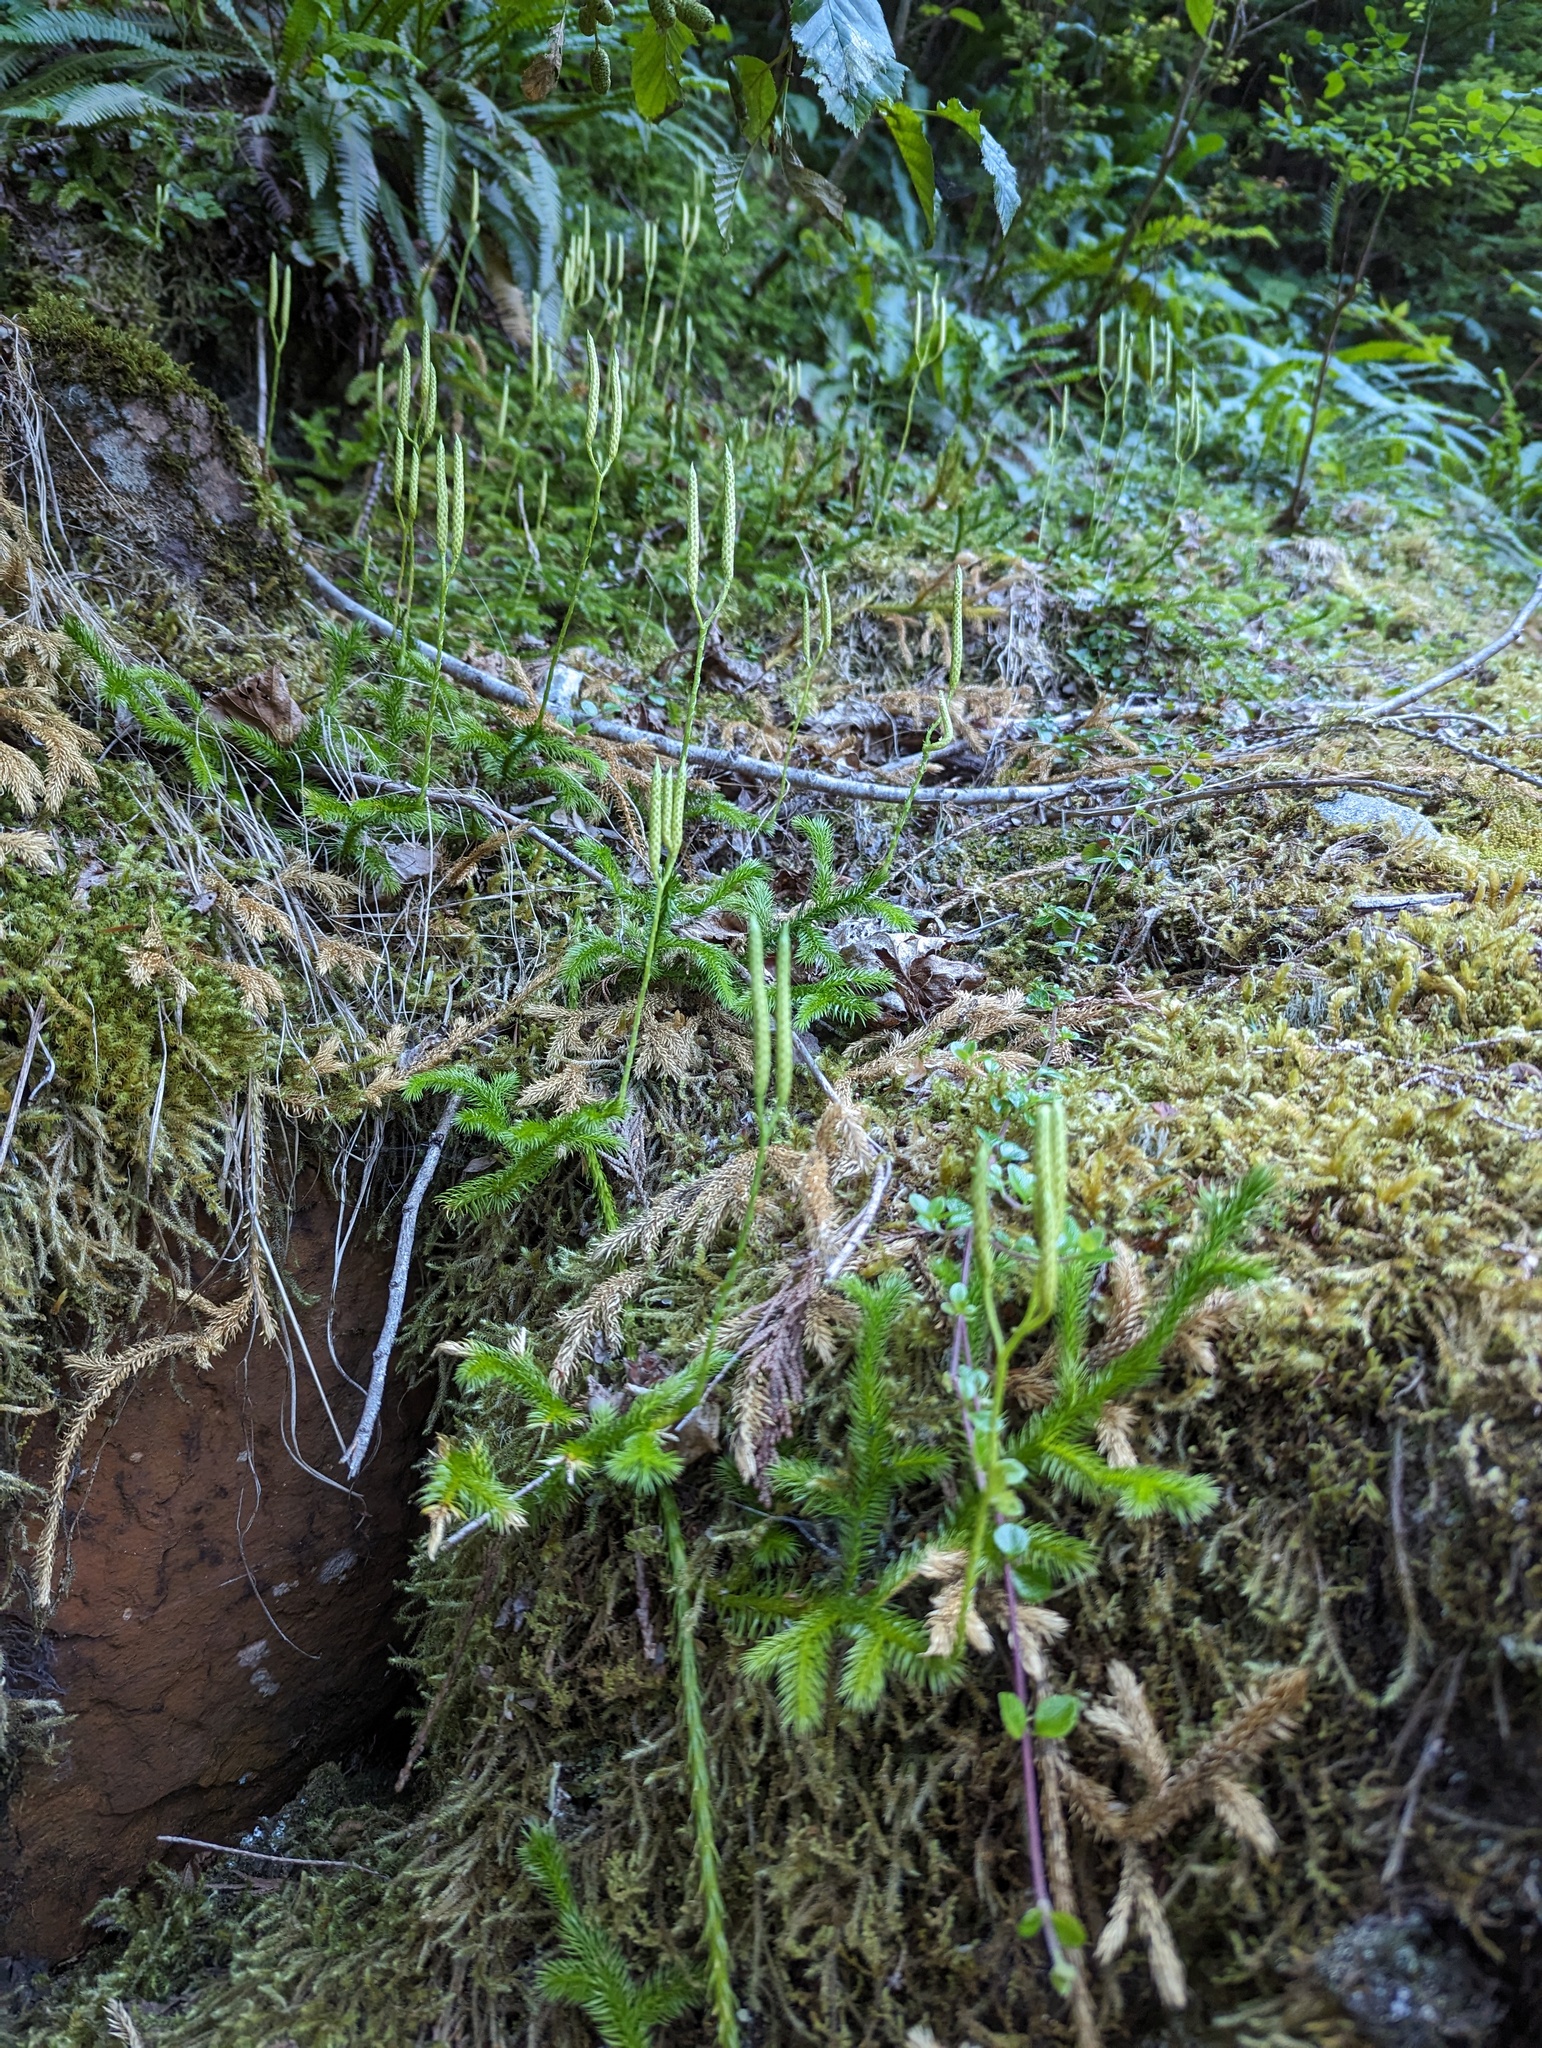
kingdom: Plantae
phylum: Tracheophyta
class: Lycopodiopsida
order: Lycopodiales
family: Lycopodiaceae
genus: Lycopodium
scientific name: Lycopodium clavatum
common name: Stag's-horn clubmoss
